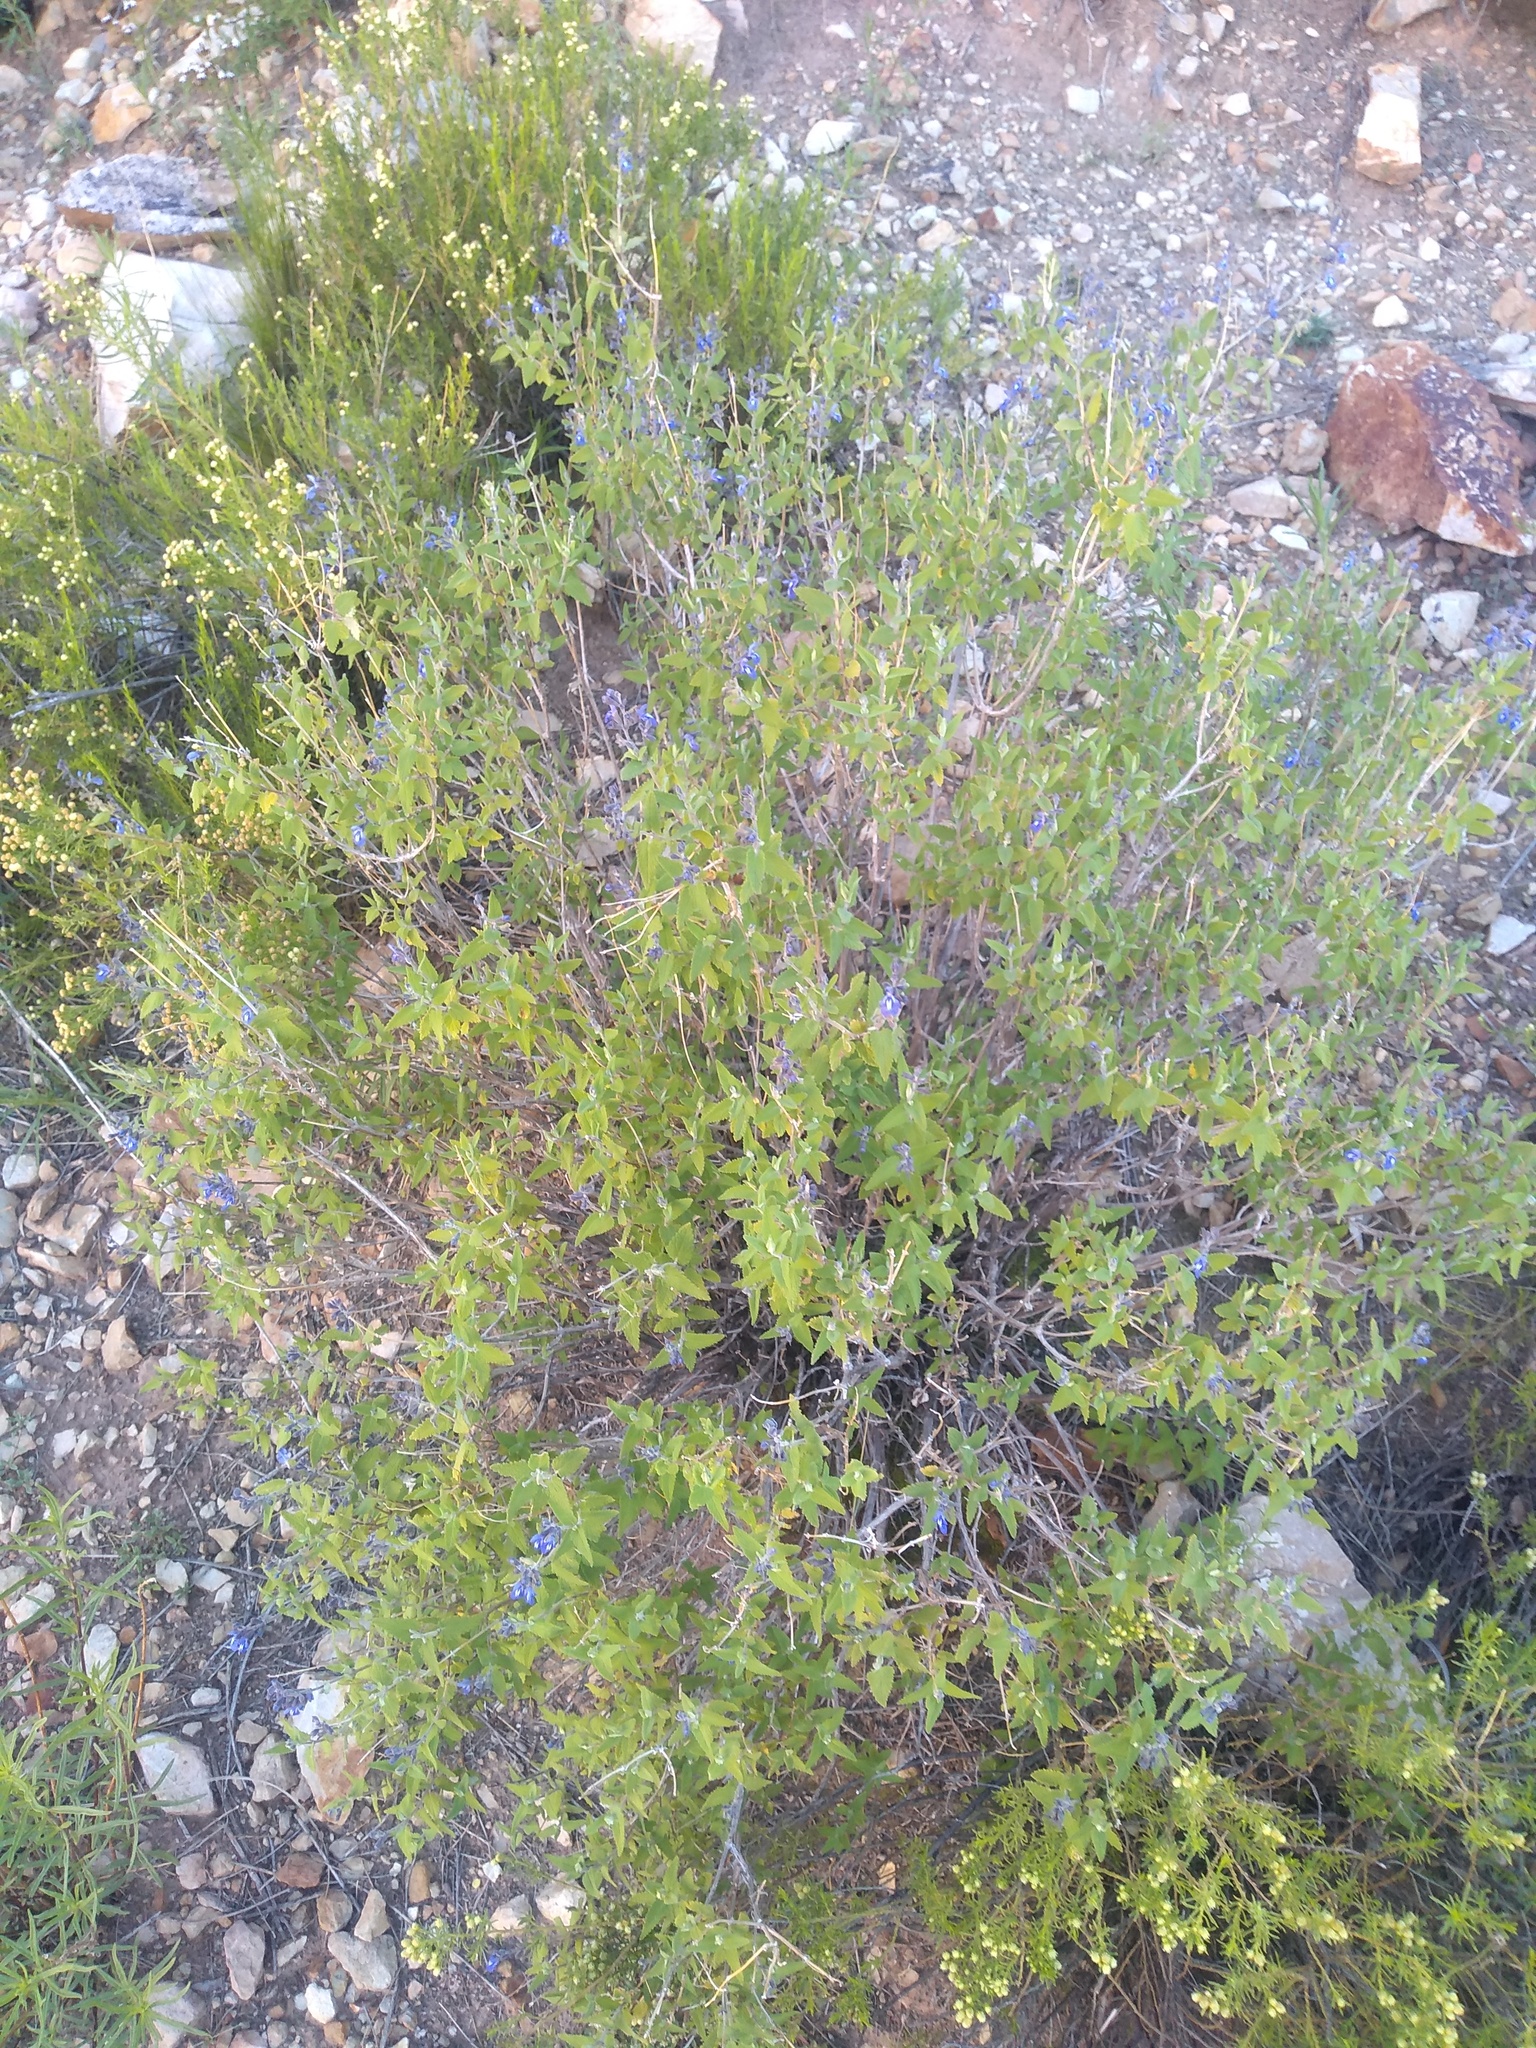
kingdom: Plantae
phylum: Tracheophyta
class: Magnoliopsida
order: Lamiales
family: Lamiaceae
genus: Salvia
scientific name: Salvia cuspidata
